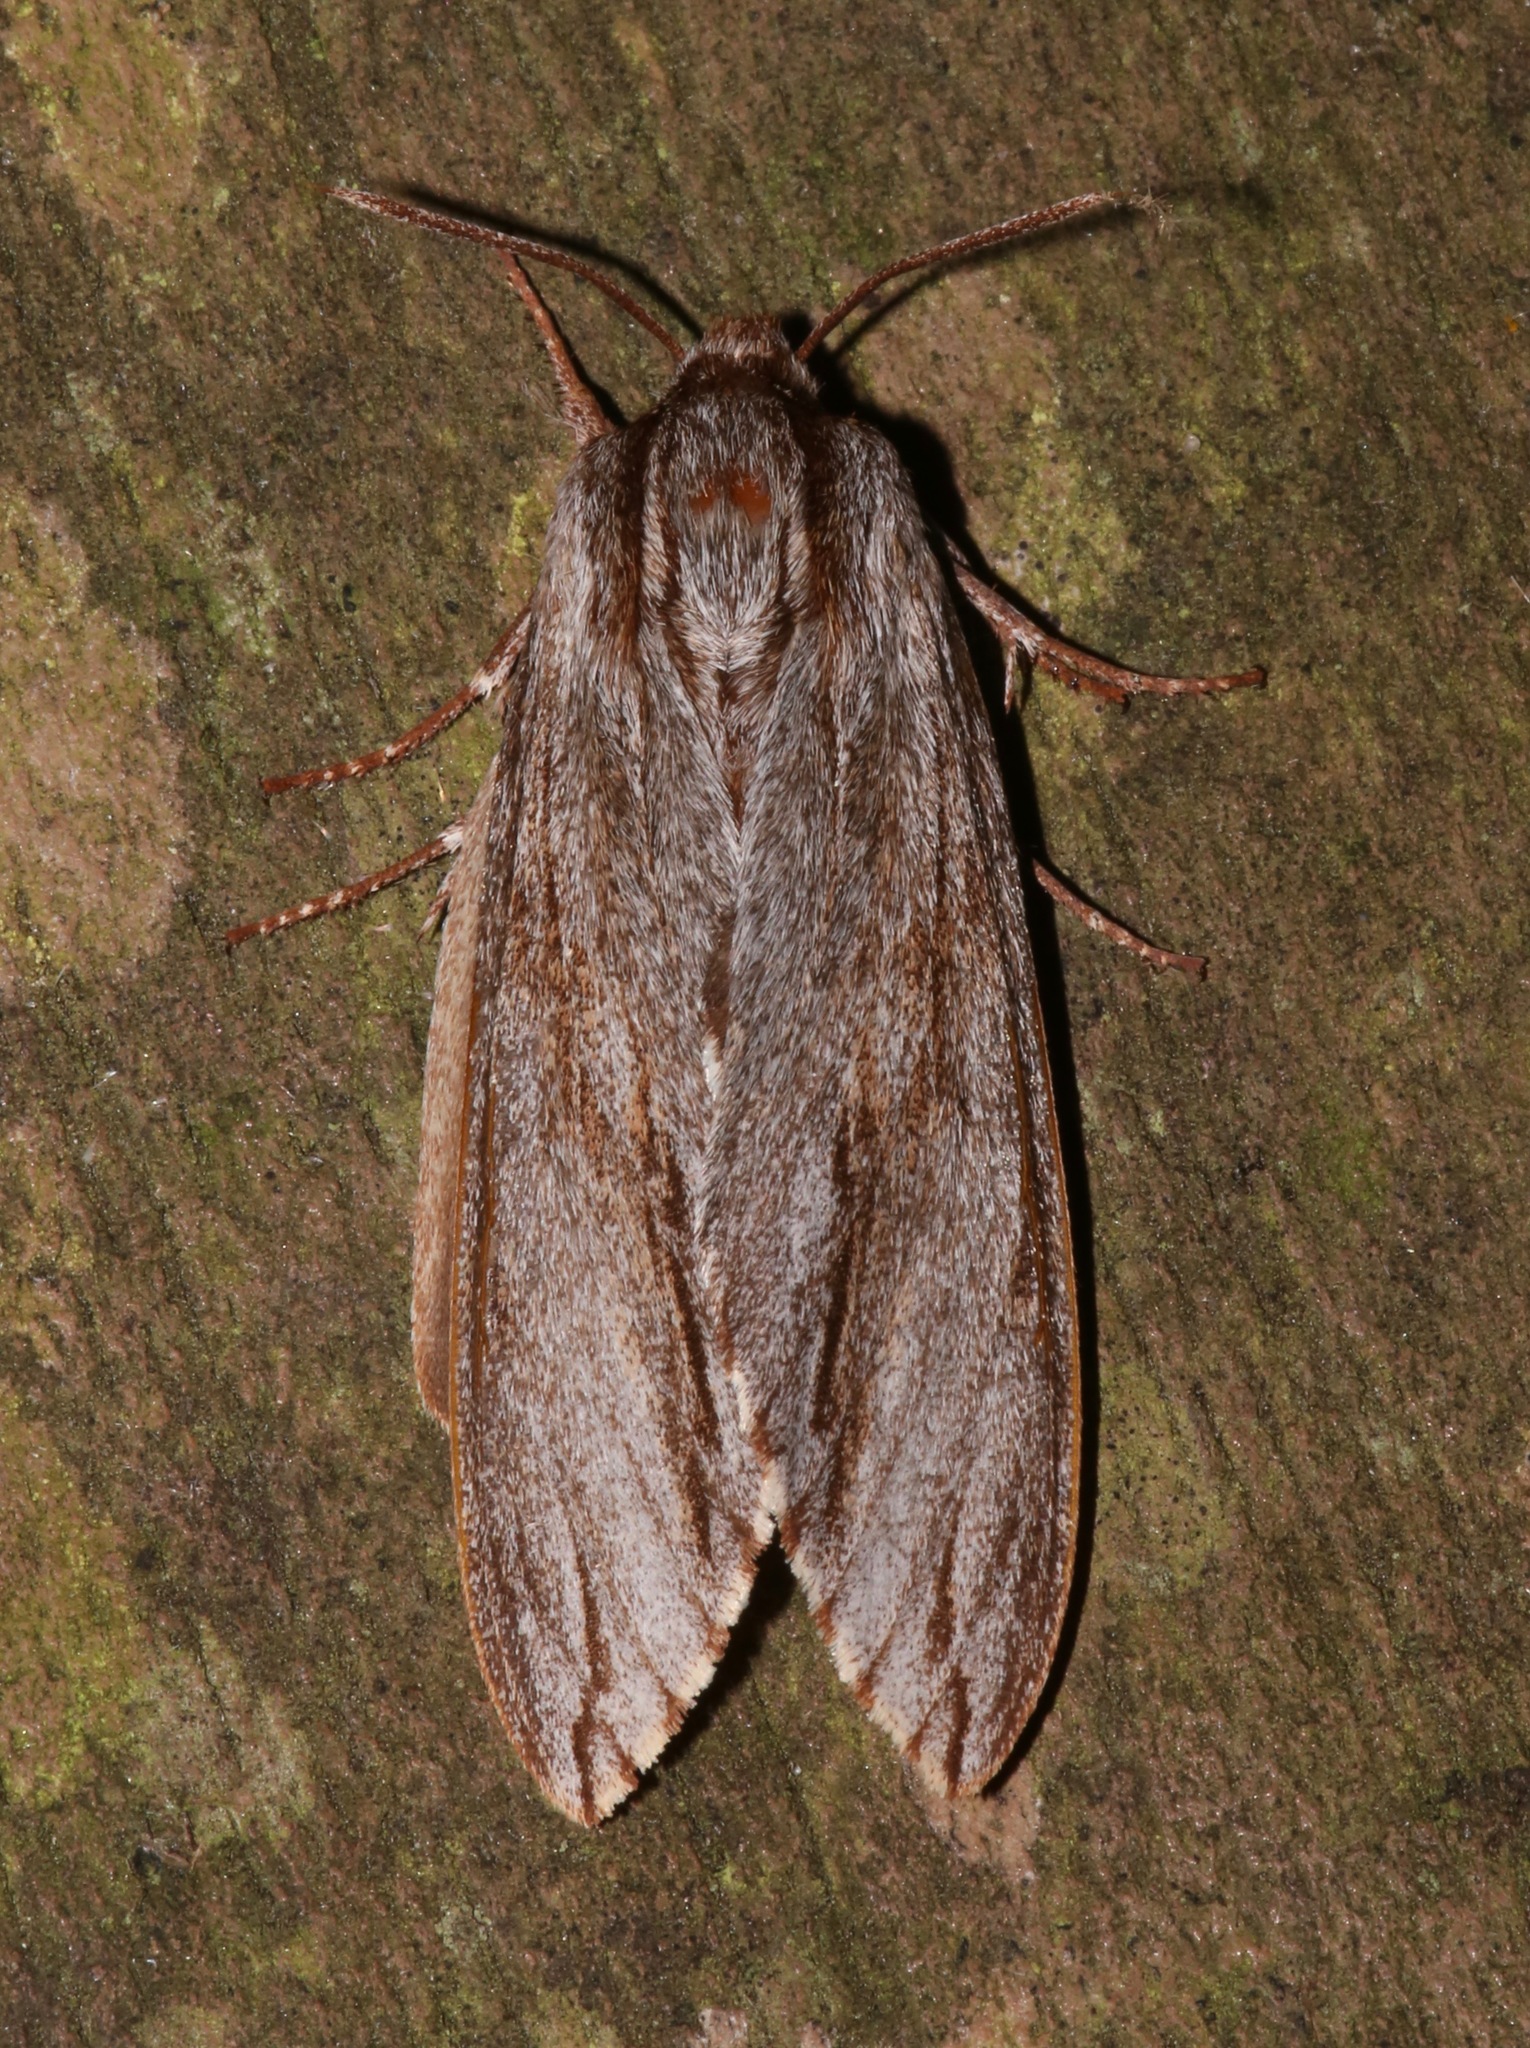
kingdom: Animalia
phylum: Arthropoda
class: Insecta
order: Lepidoptera
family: Sphingidae
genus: Isoparce
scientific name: Isoparce cupressi
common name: Cypress sphinx
